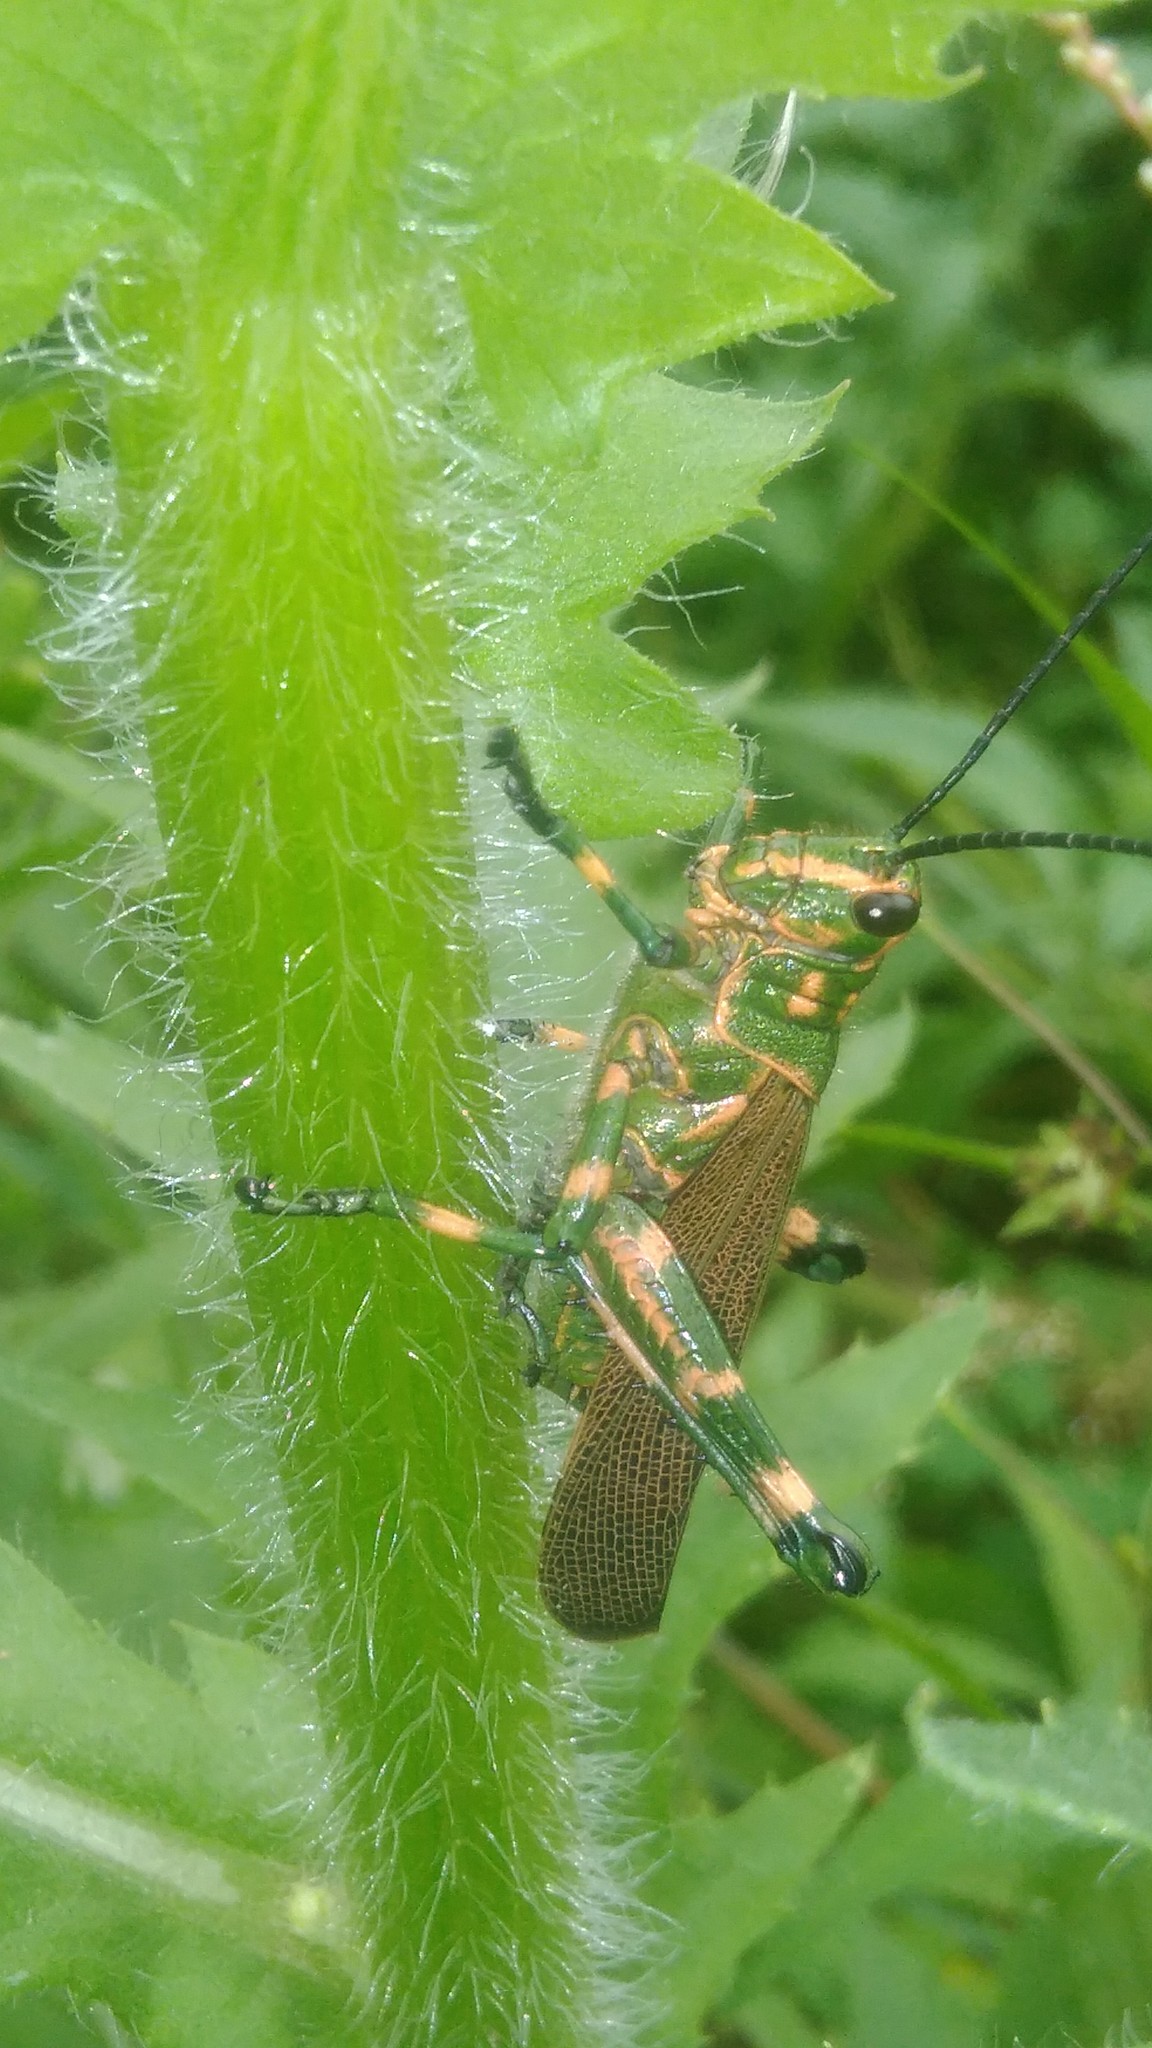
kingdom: Animalia
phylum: Arthropoda
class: Insecta
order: Orthoptera
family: Romaleidae
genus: Chromacris
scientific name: Chromacris speciosa
